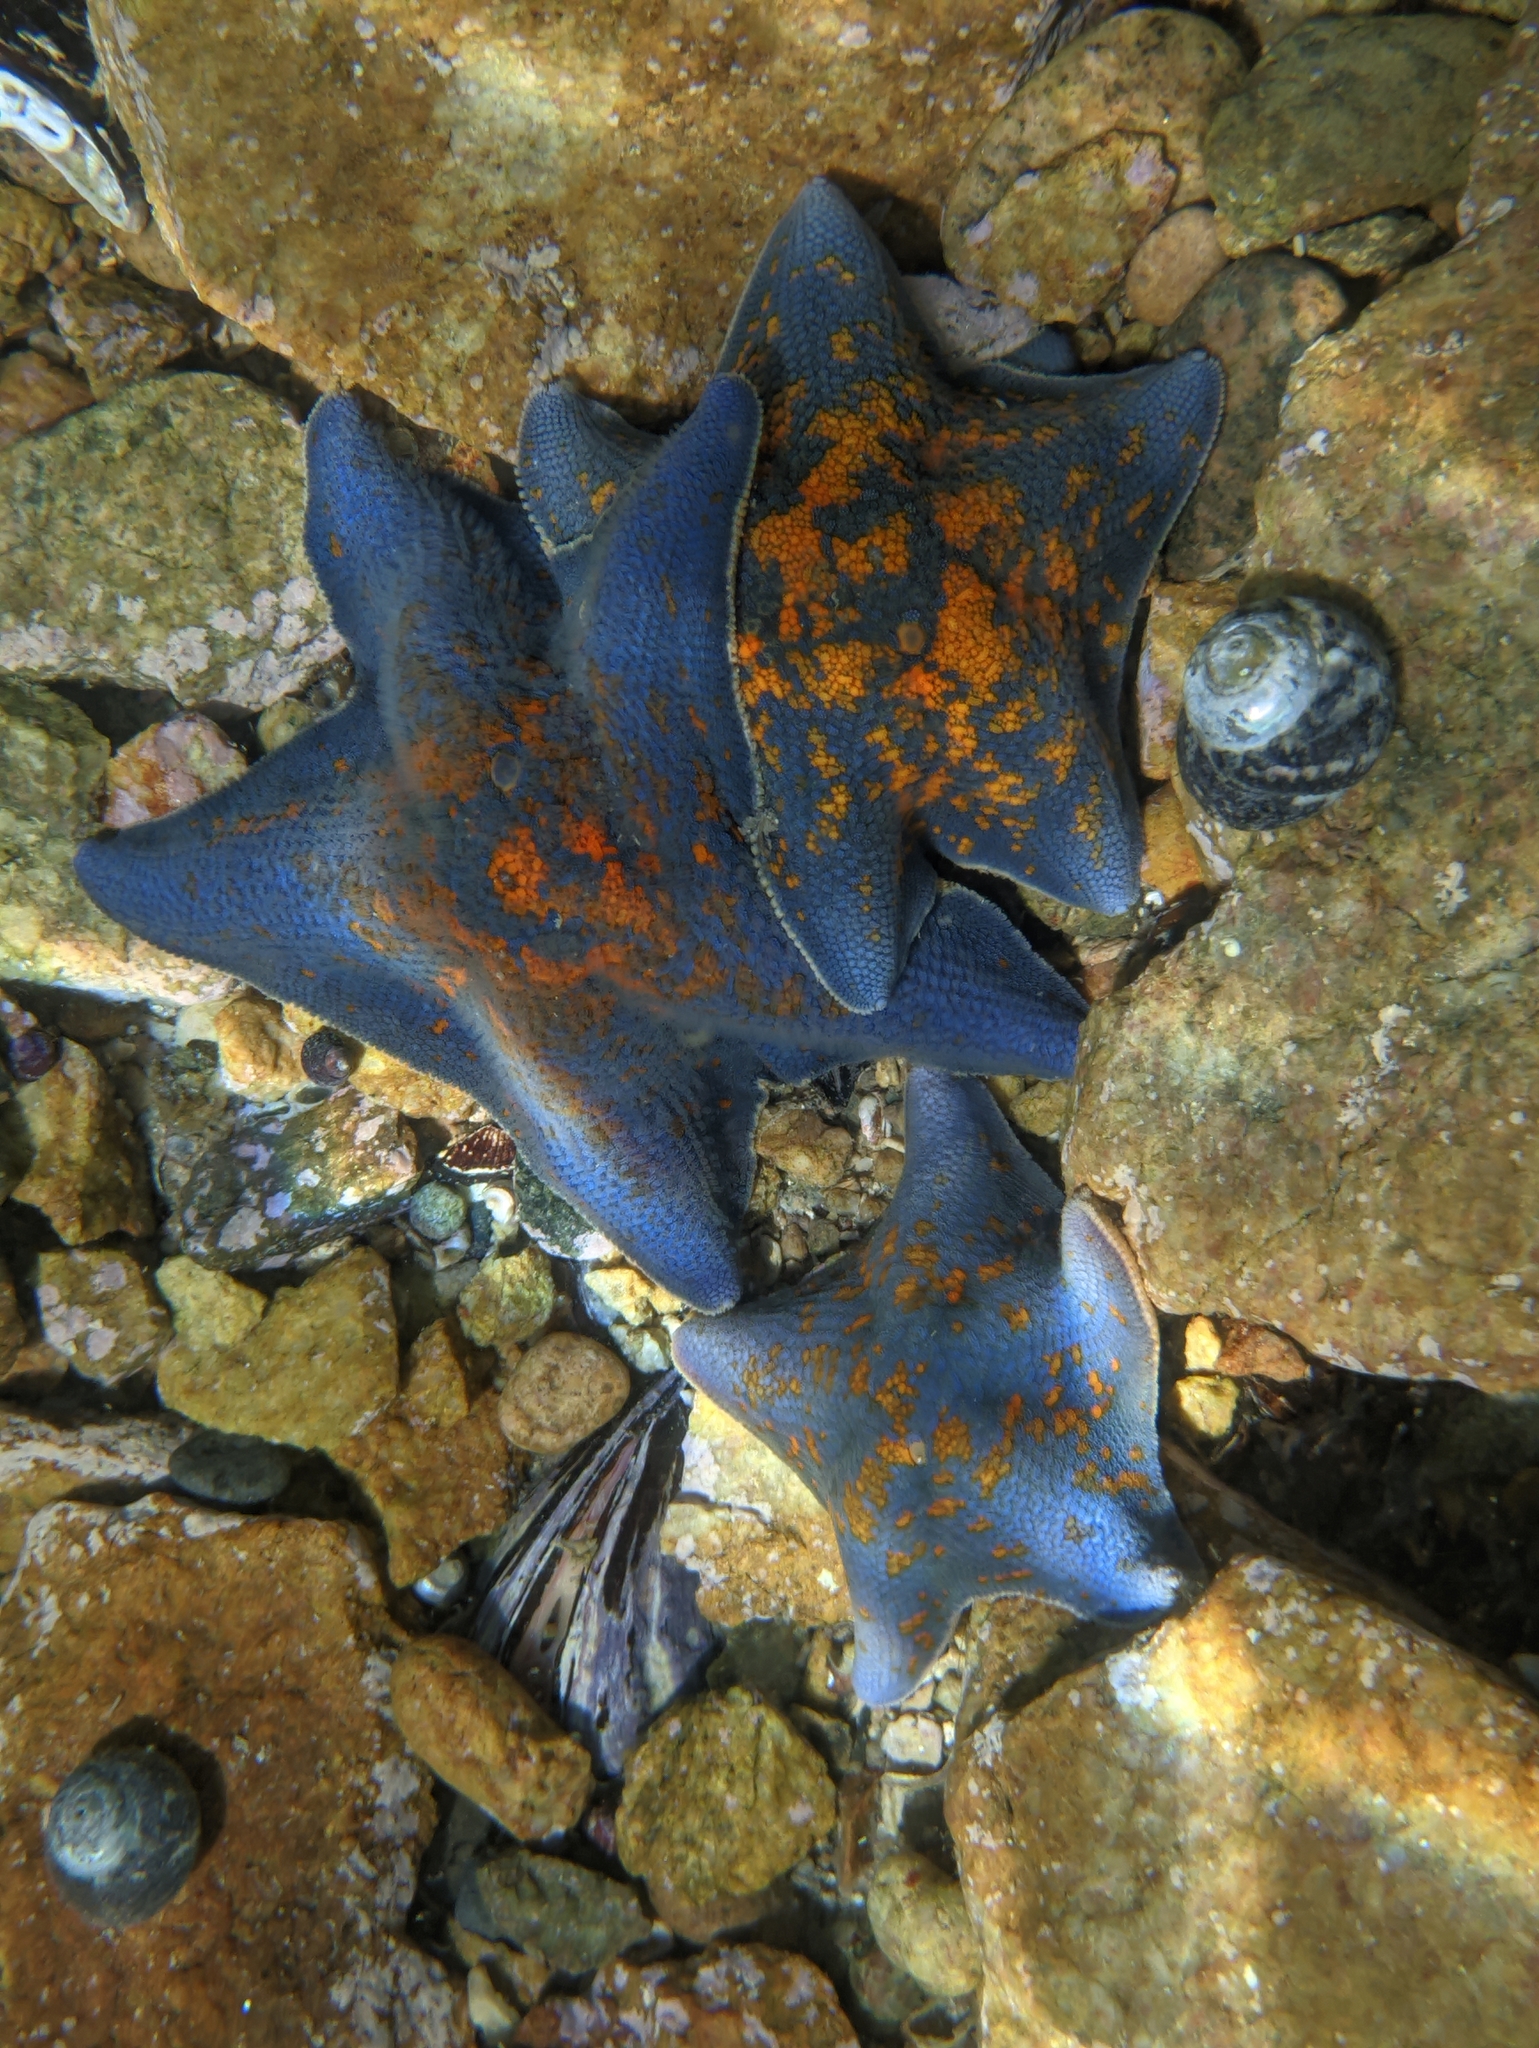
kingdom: Animalia
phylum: Echinodermata
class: Asteroidea
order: Valvatida
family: Asterinidae
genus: Patiria
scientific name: Patiria pectinifera
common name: Blue bat star
